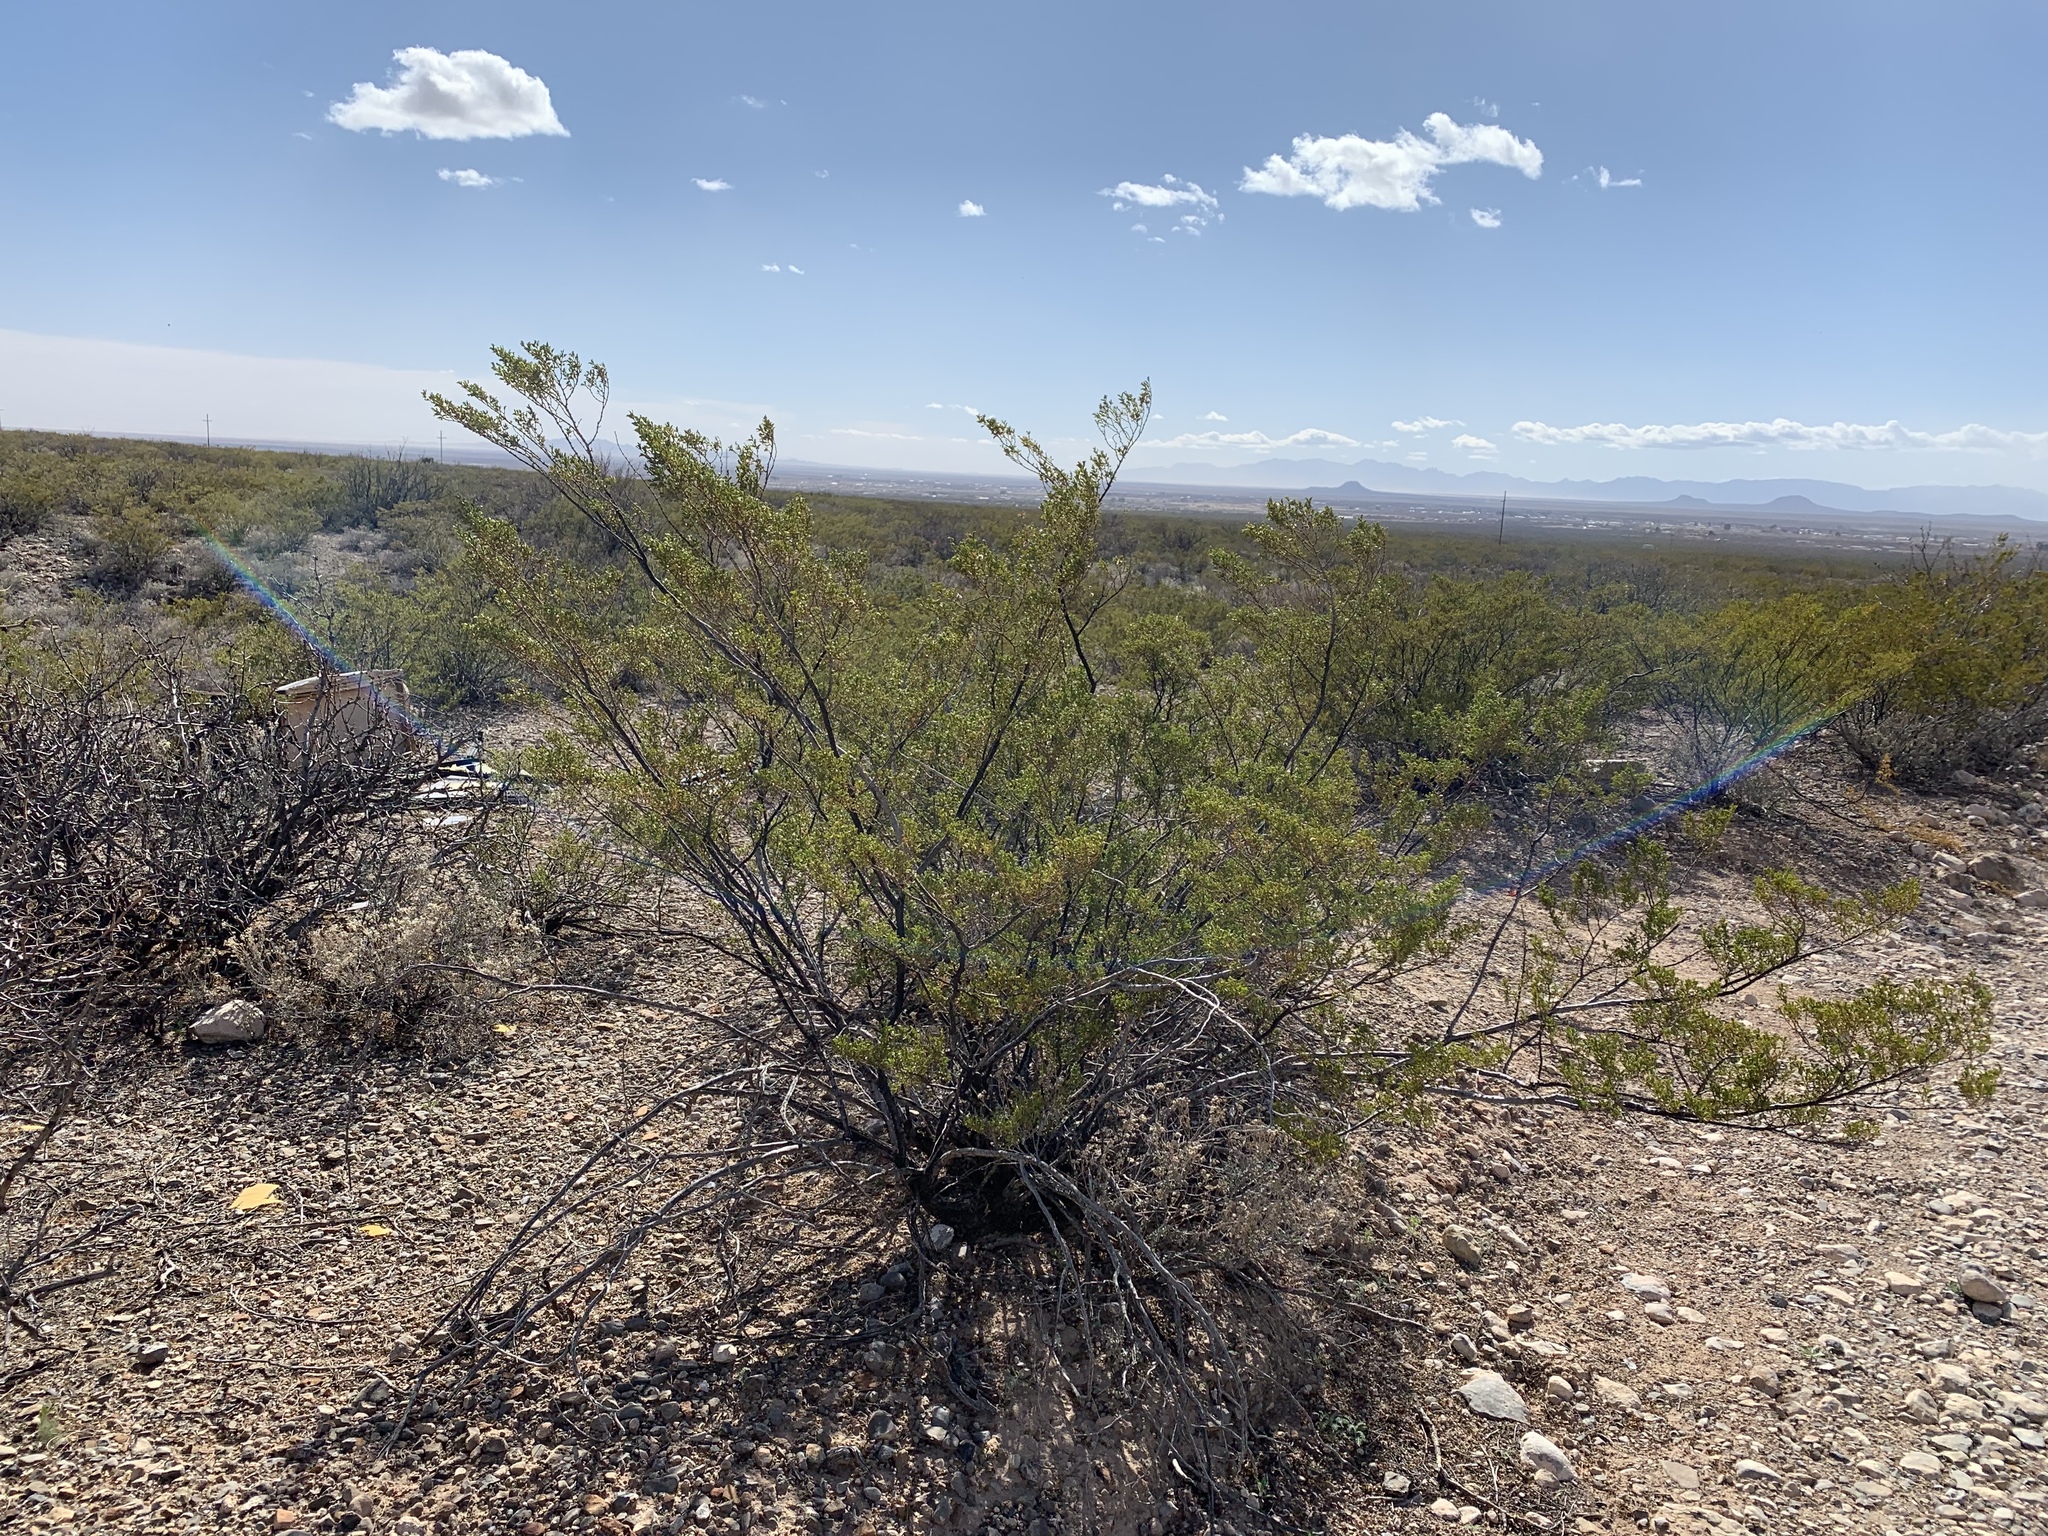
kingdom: Plantae
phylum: Tracheophyta
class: Magnoliopsida
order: Zygophyllales
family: Zygophyllaceae
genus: Larrea
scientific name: Larrea tridentata
